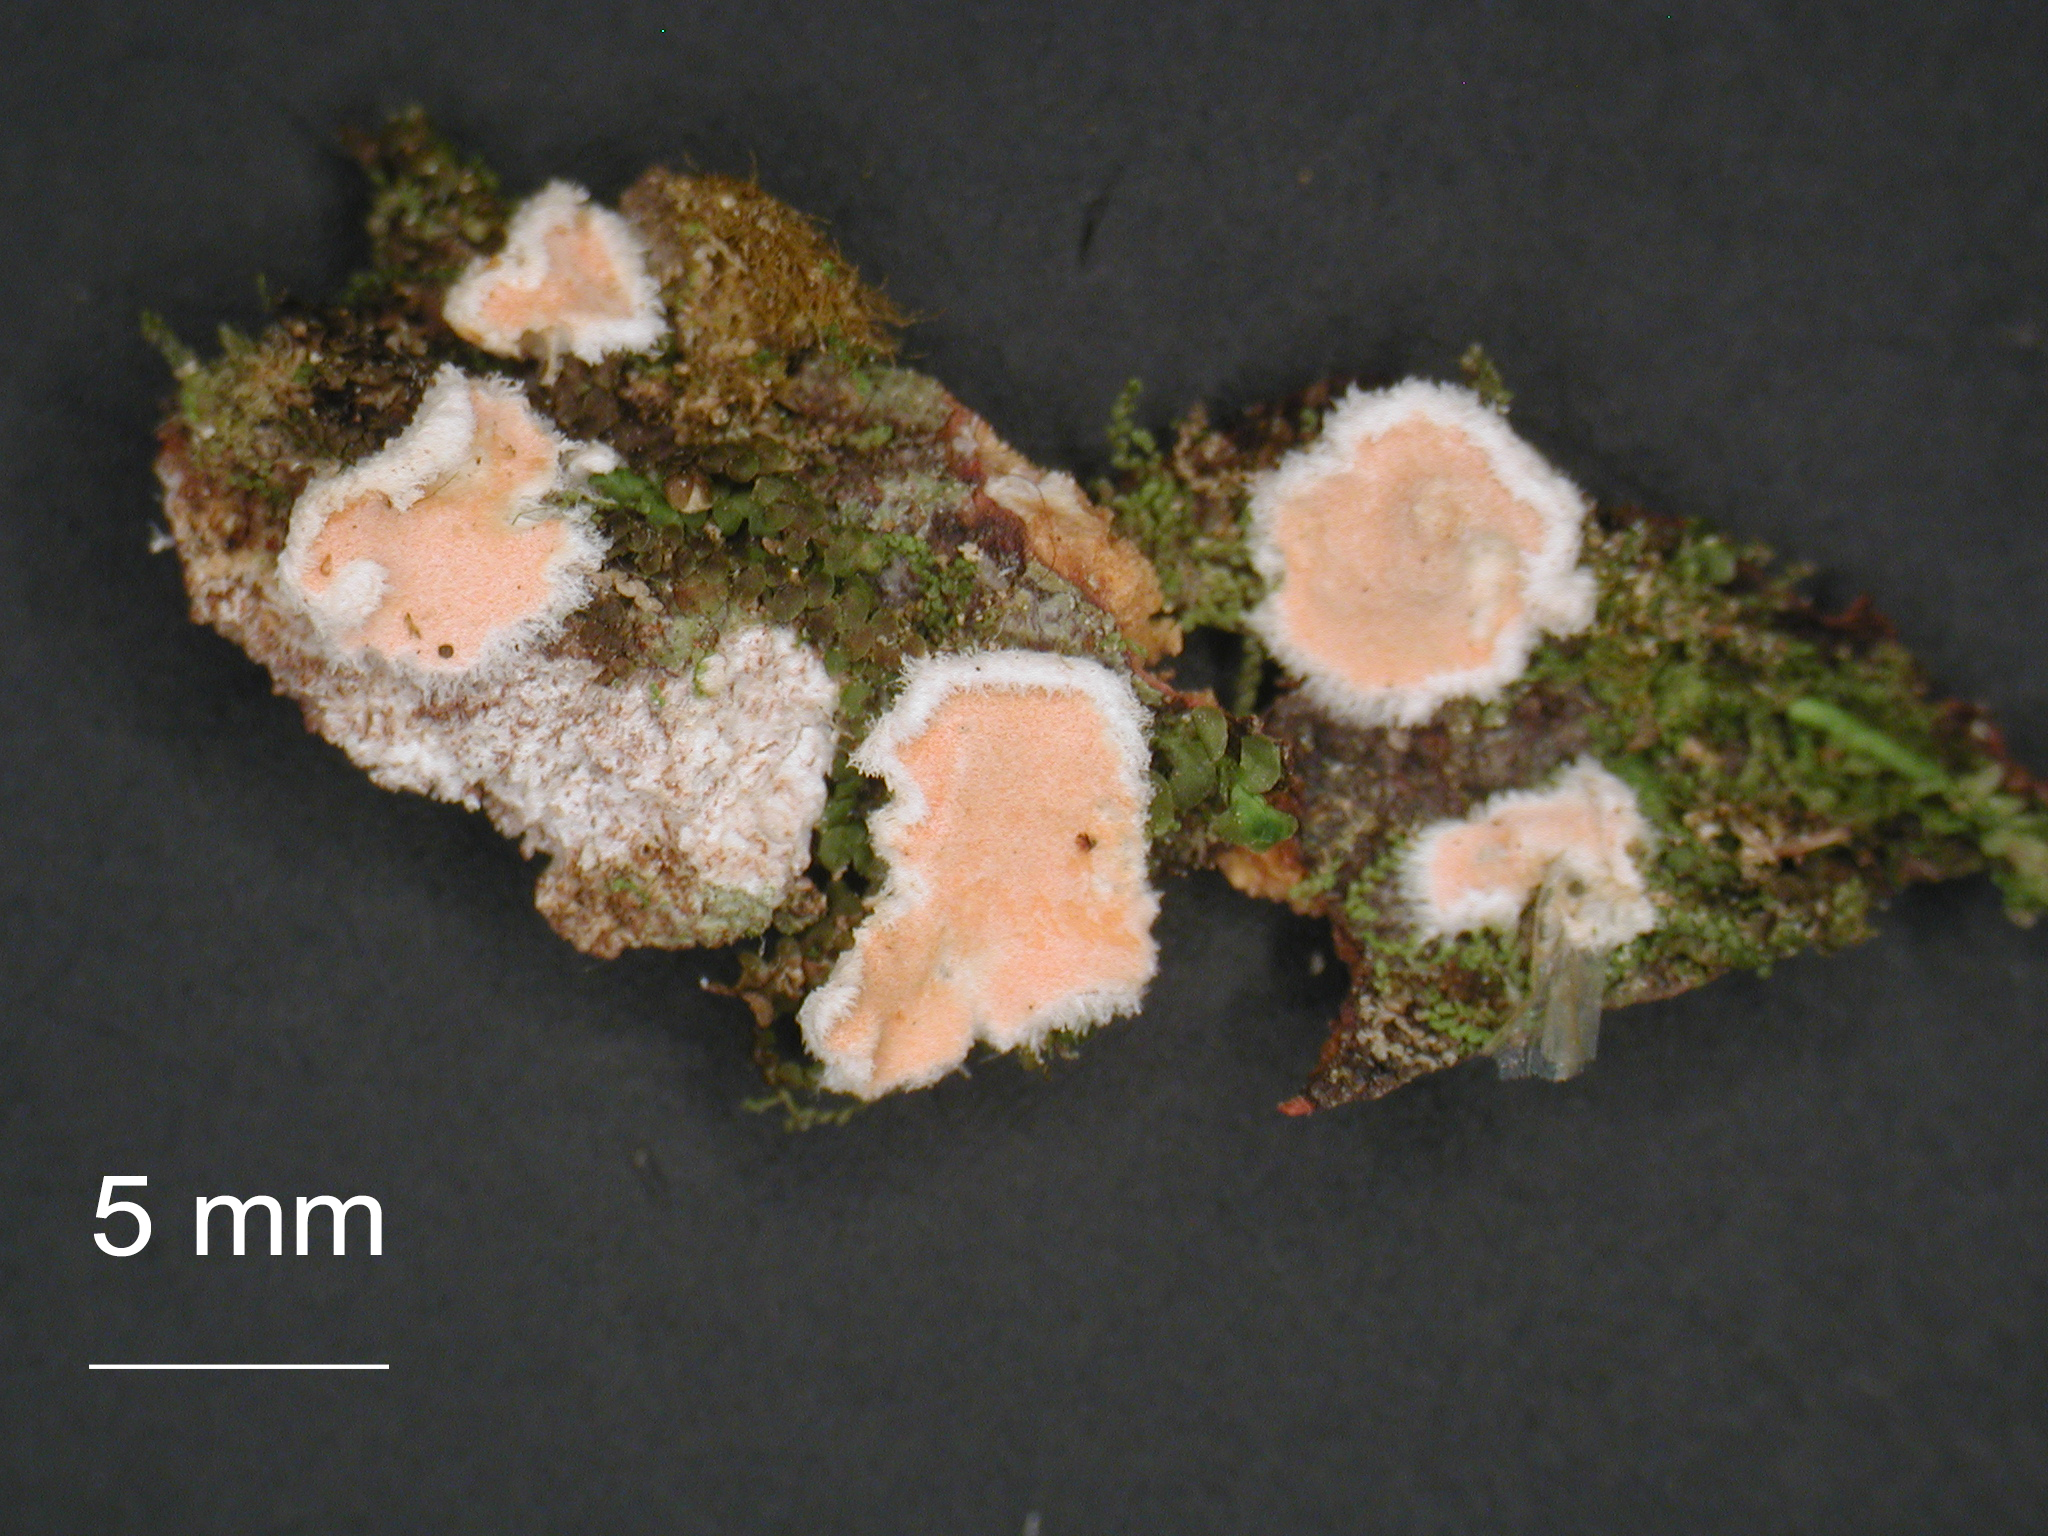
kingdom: Fungi
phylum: Basidiomycota
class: Agaricomycetes
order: Russulales
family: Stereaceae
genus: Gloeosoma
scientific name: Gloeosoma zealandicum
